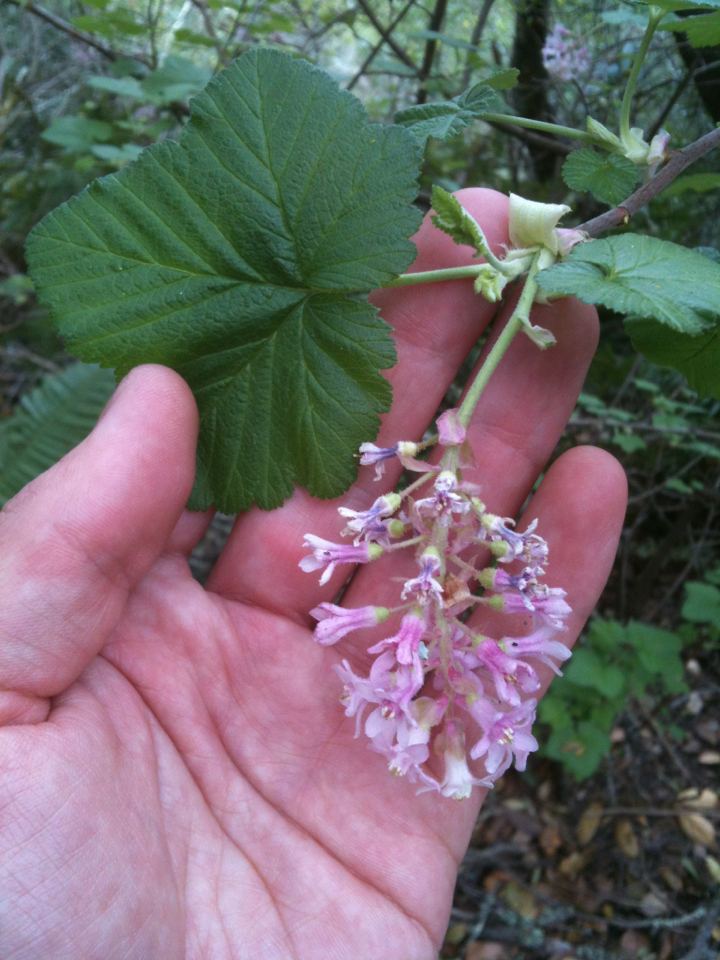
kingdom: Plantae
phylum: Tracheophyta
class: Magnoliopsida
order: Saxifragales
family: Grossulariaceae
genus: Ribes
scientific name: Ribes sanguineum
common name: Flowering currant
